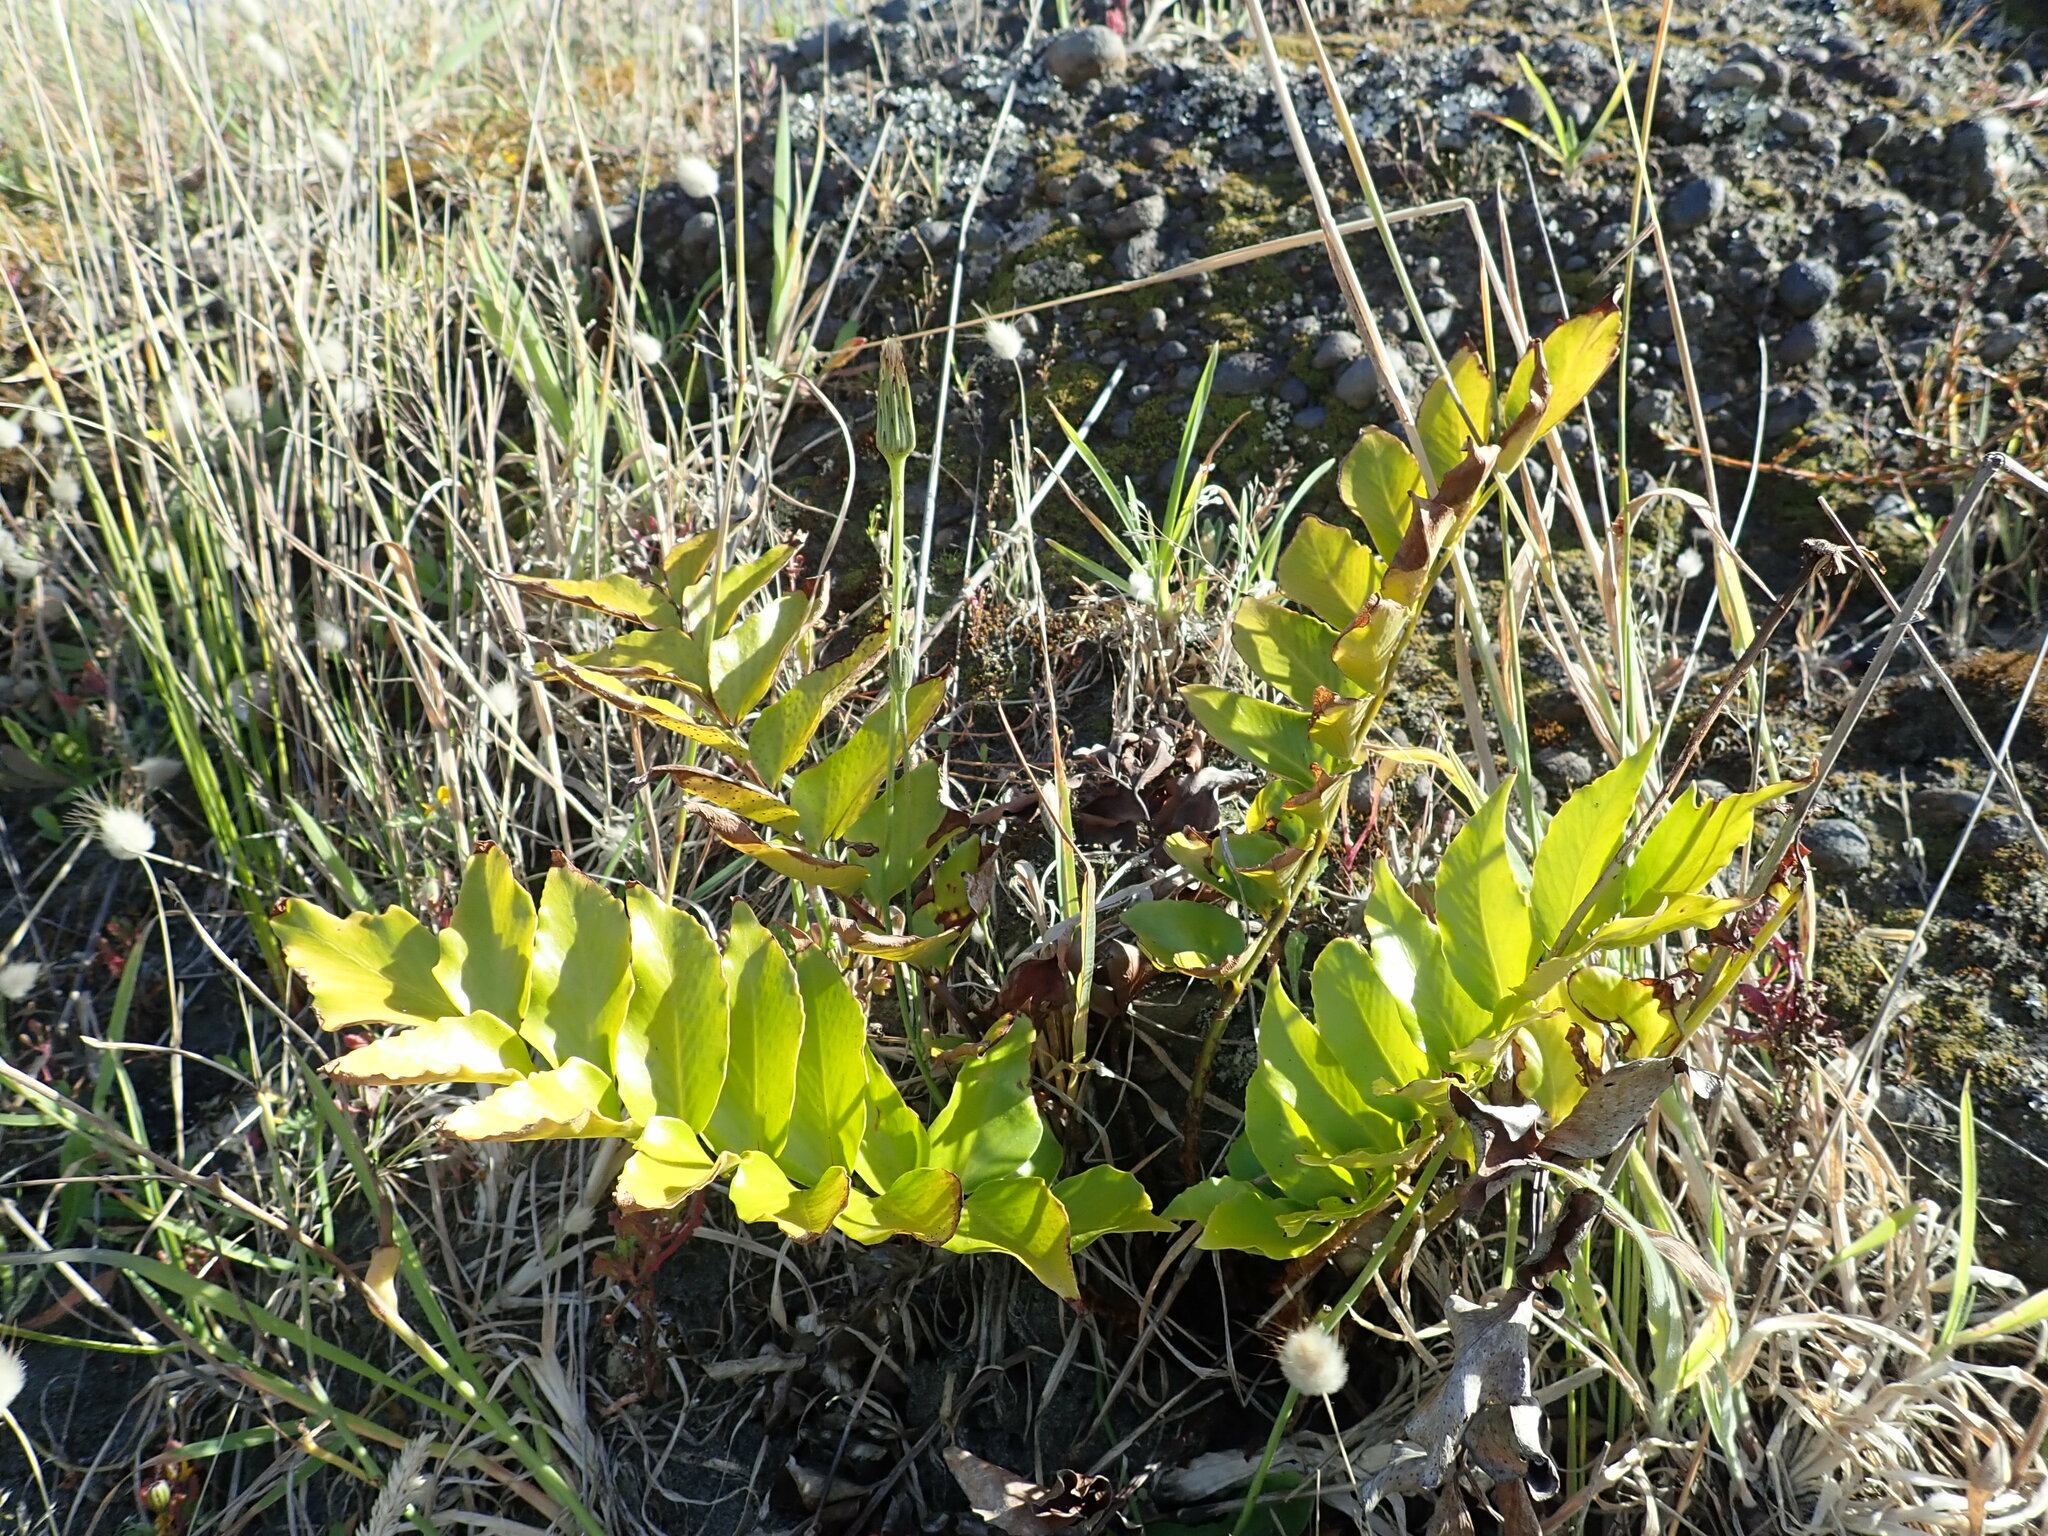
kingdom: Plantae
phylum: Tracheophyta
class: Polypodiopsida
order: Polypodiales
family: Dryopteridaceae
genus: Cyrtomium
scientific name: Cyrtomium falcatum
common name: House holly-fern
